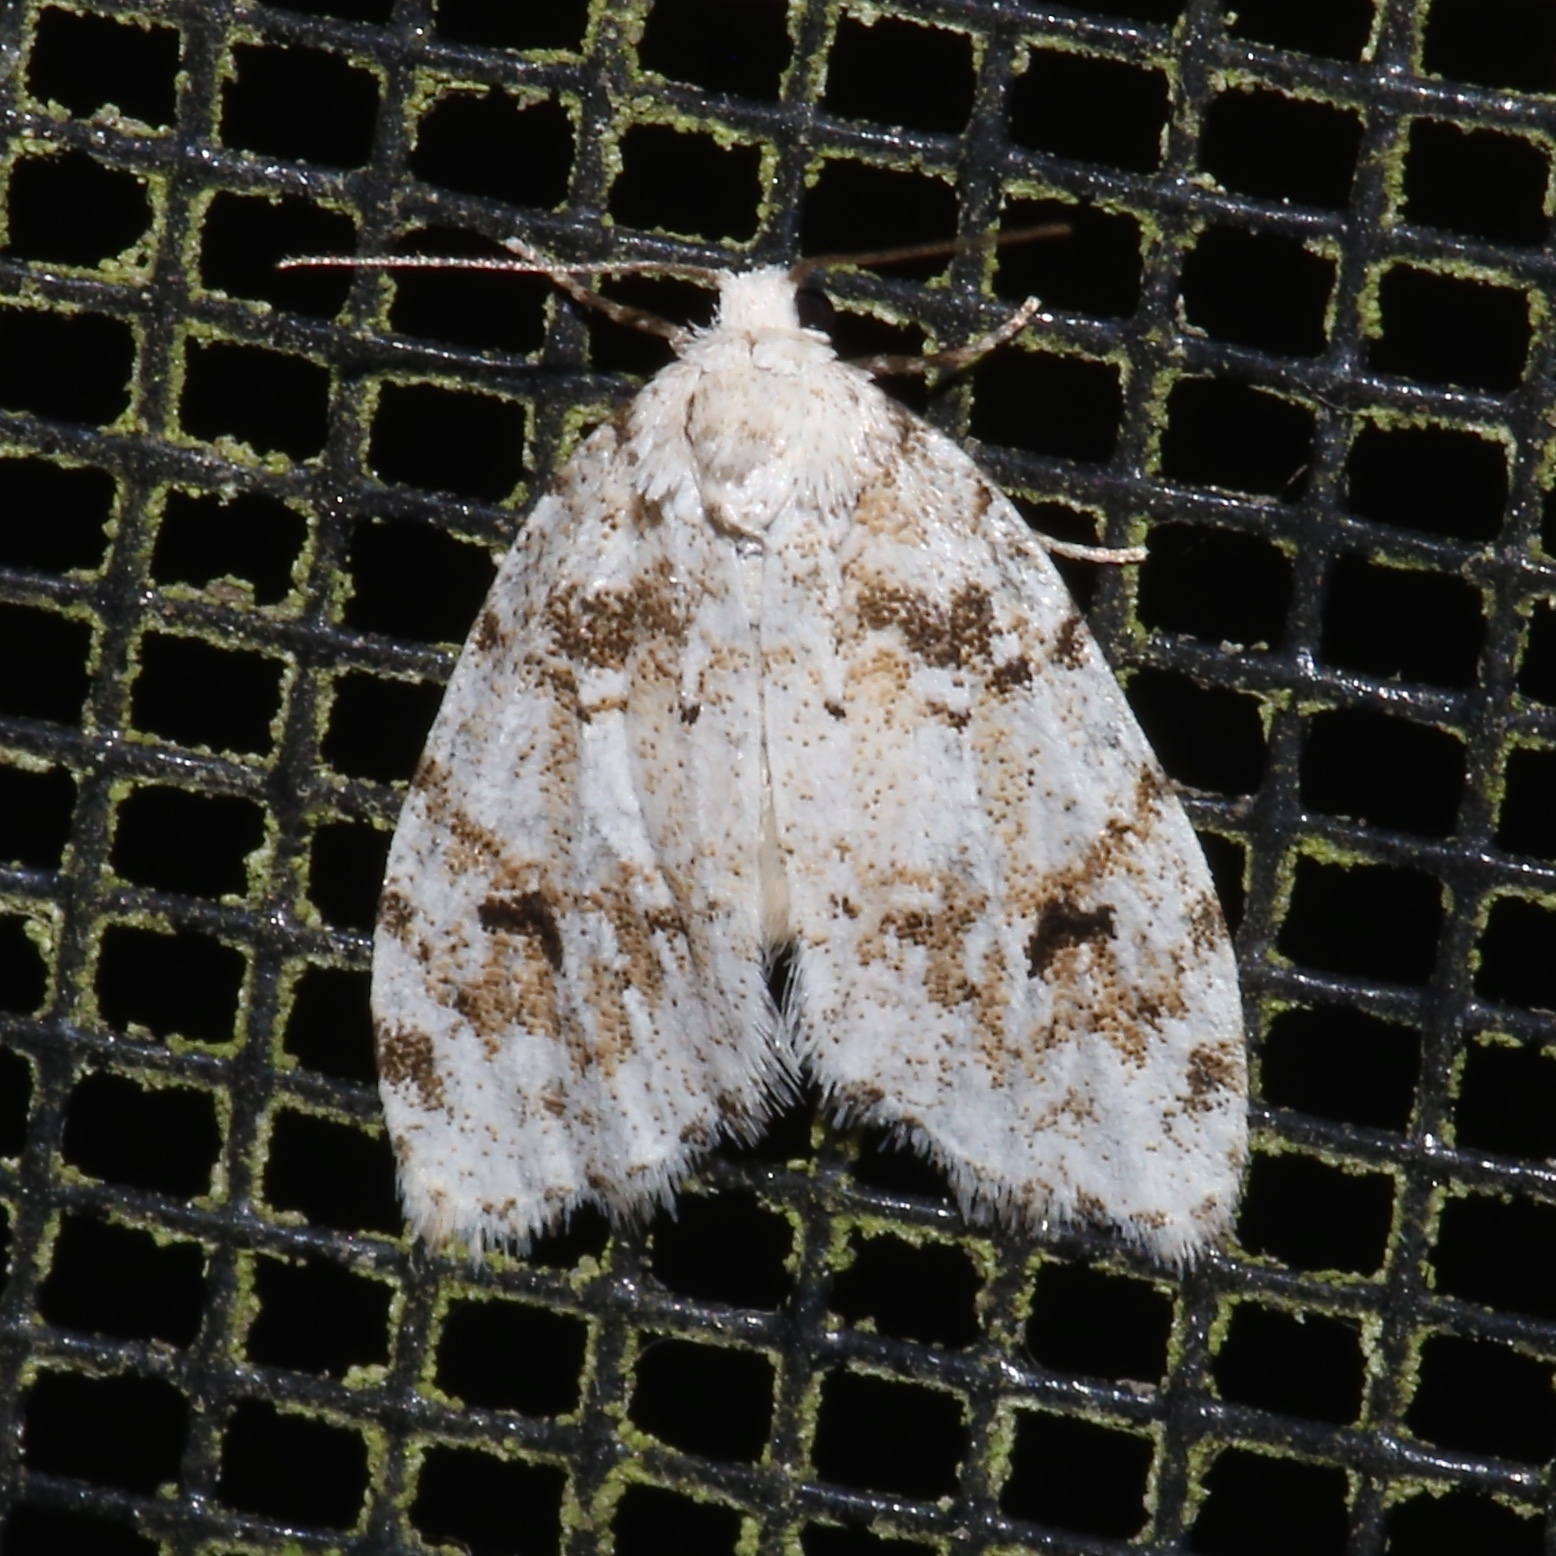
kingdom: Animalia
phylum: Arthropoda
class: Insecta
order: Lepidoptera
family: Erebidae
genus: Clemensia
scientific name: Clemensia ochreata
